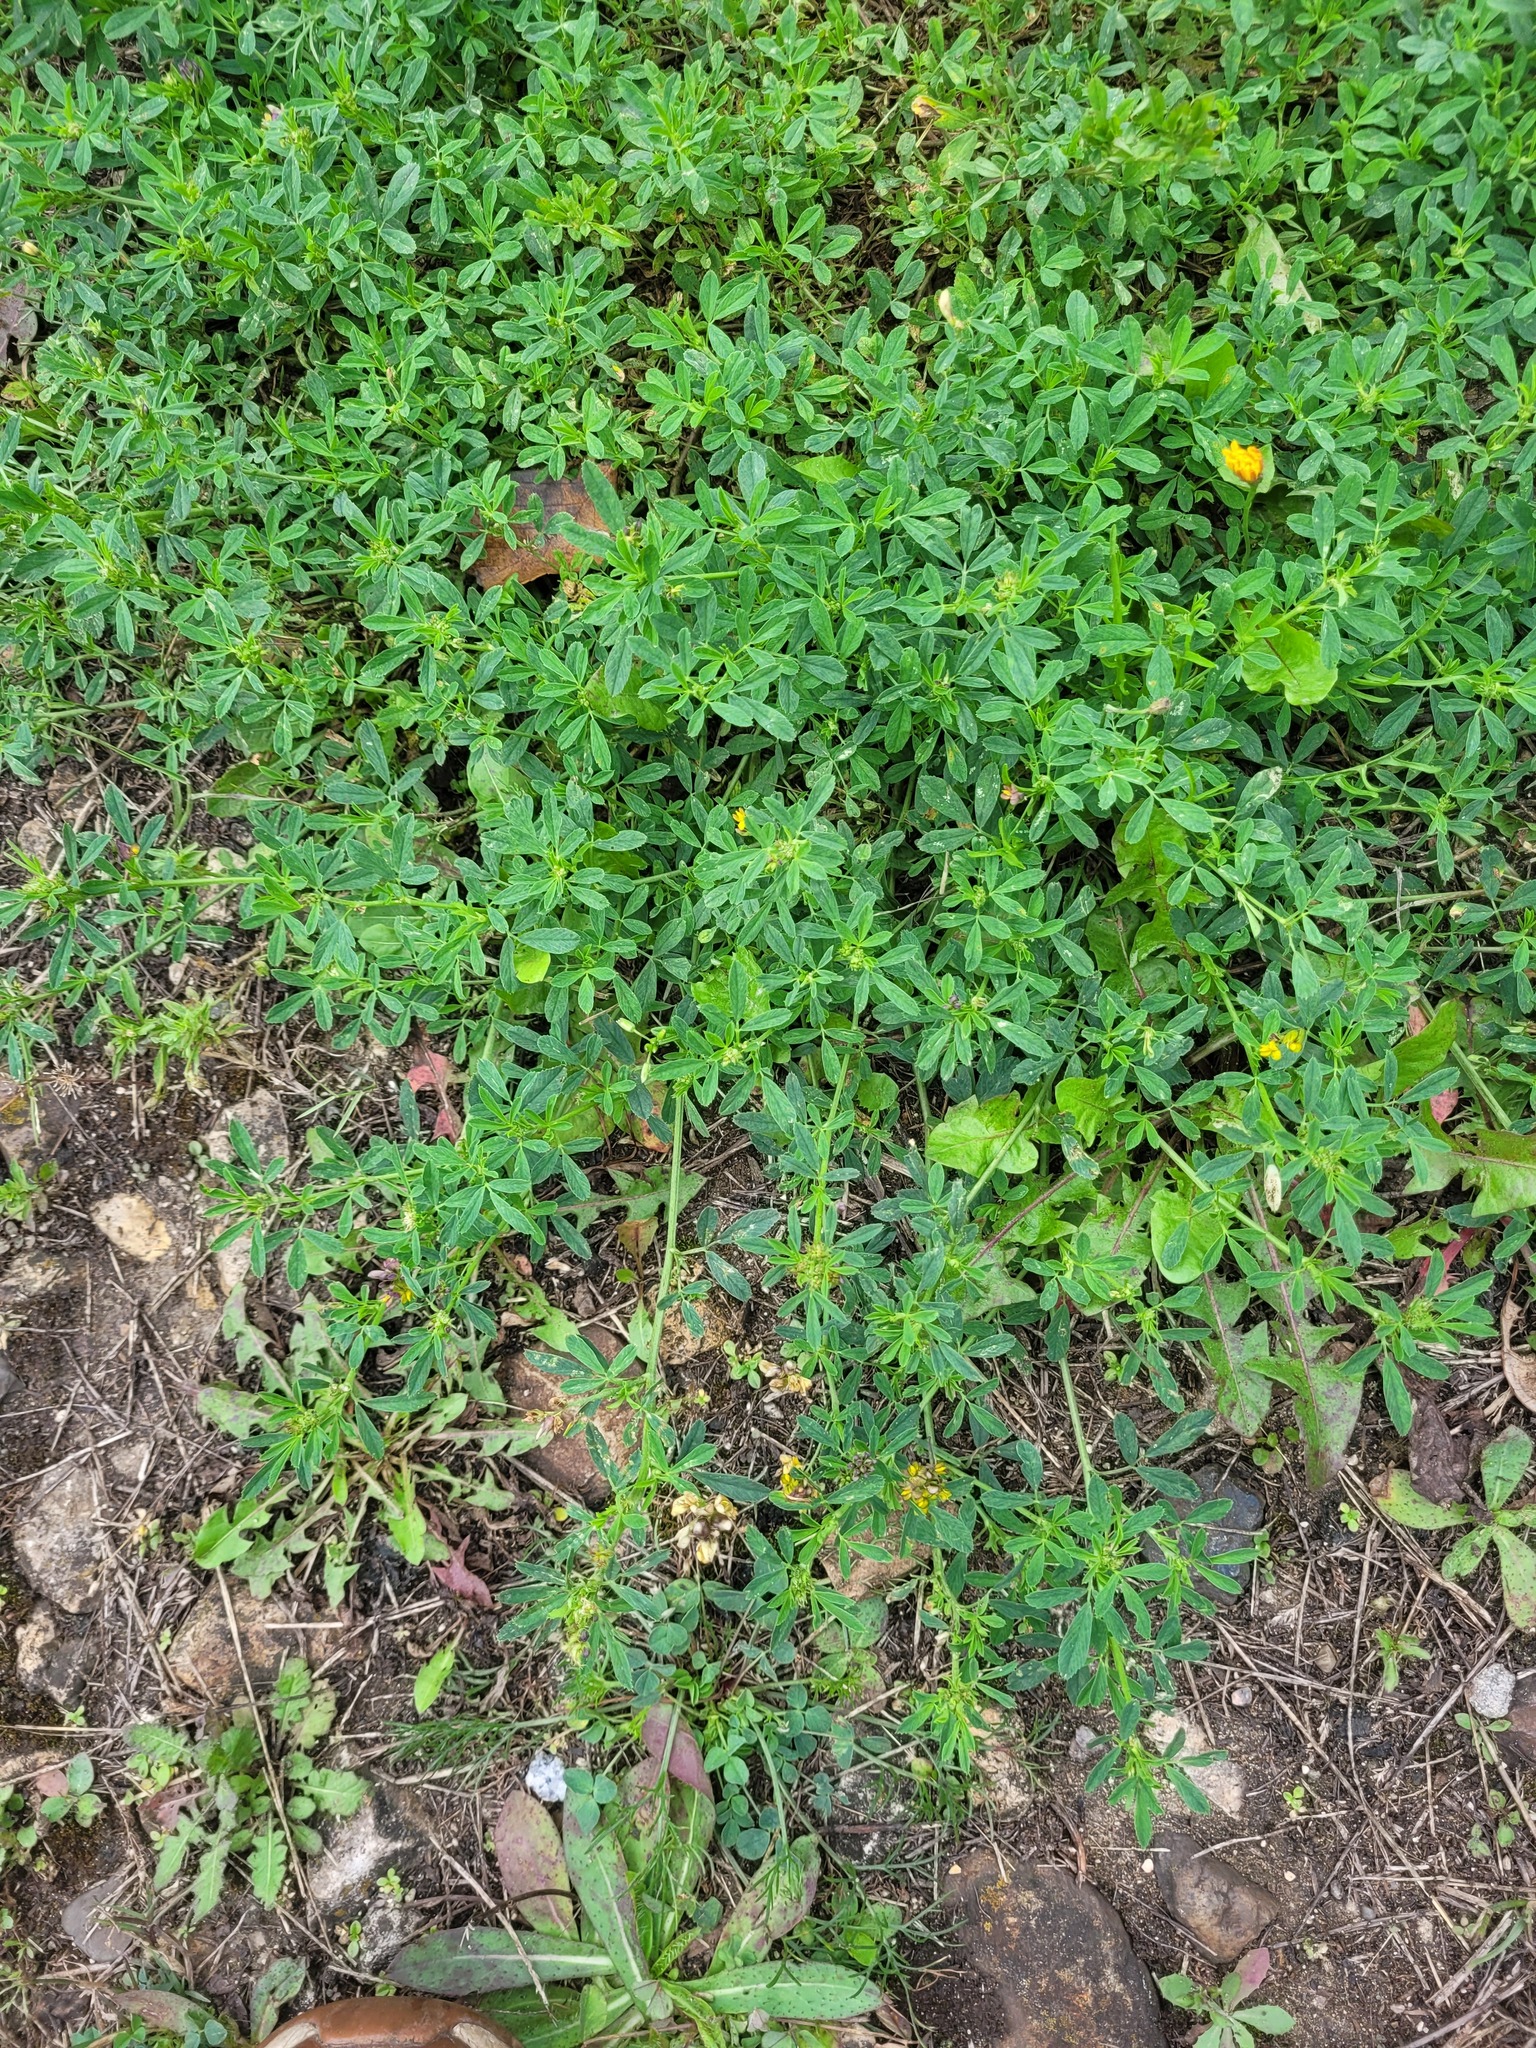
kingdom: Plantae
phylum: Tracheophyta
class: Magnoliopsida
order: Fabales
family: Fabaceae
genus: Medicago
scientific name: Medicago varia
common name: Sand lucerne
